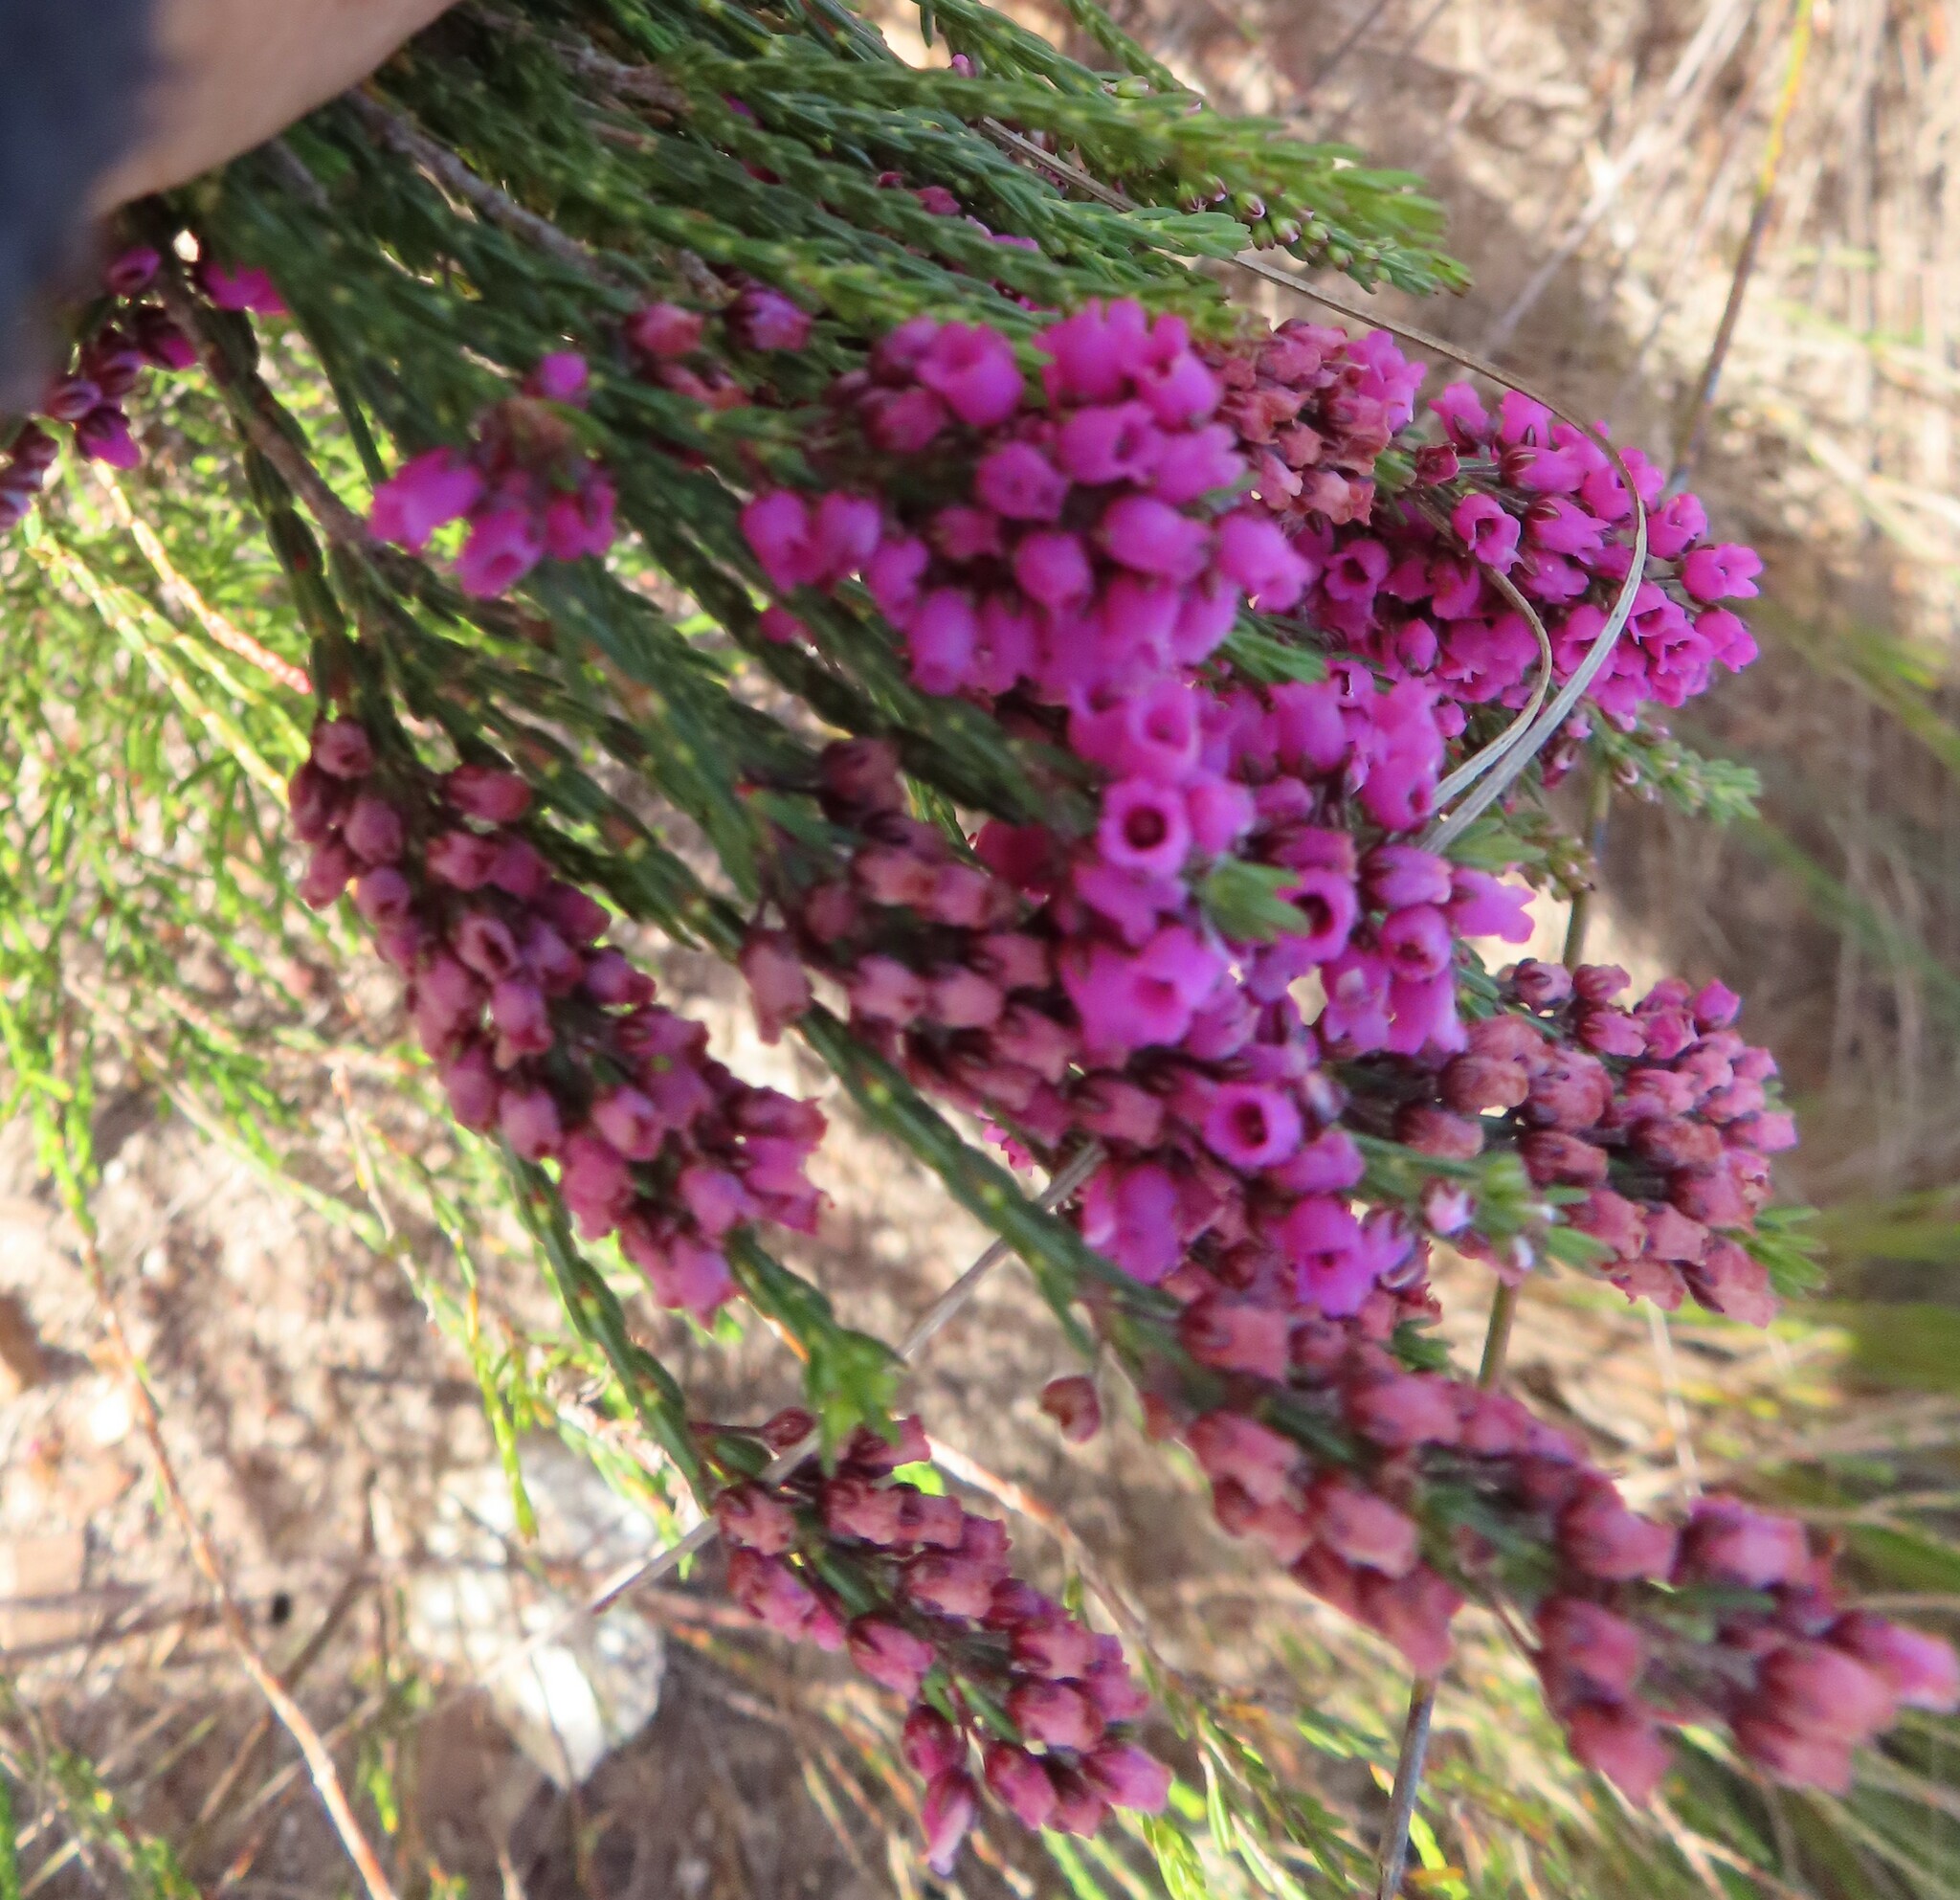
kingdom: Plantae
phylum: Tracheophyta
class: Magnoliopsida
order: Ericales
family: Ericaceae
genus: Erica
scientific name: Erica pulchella
